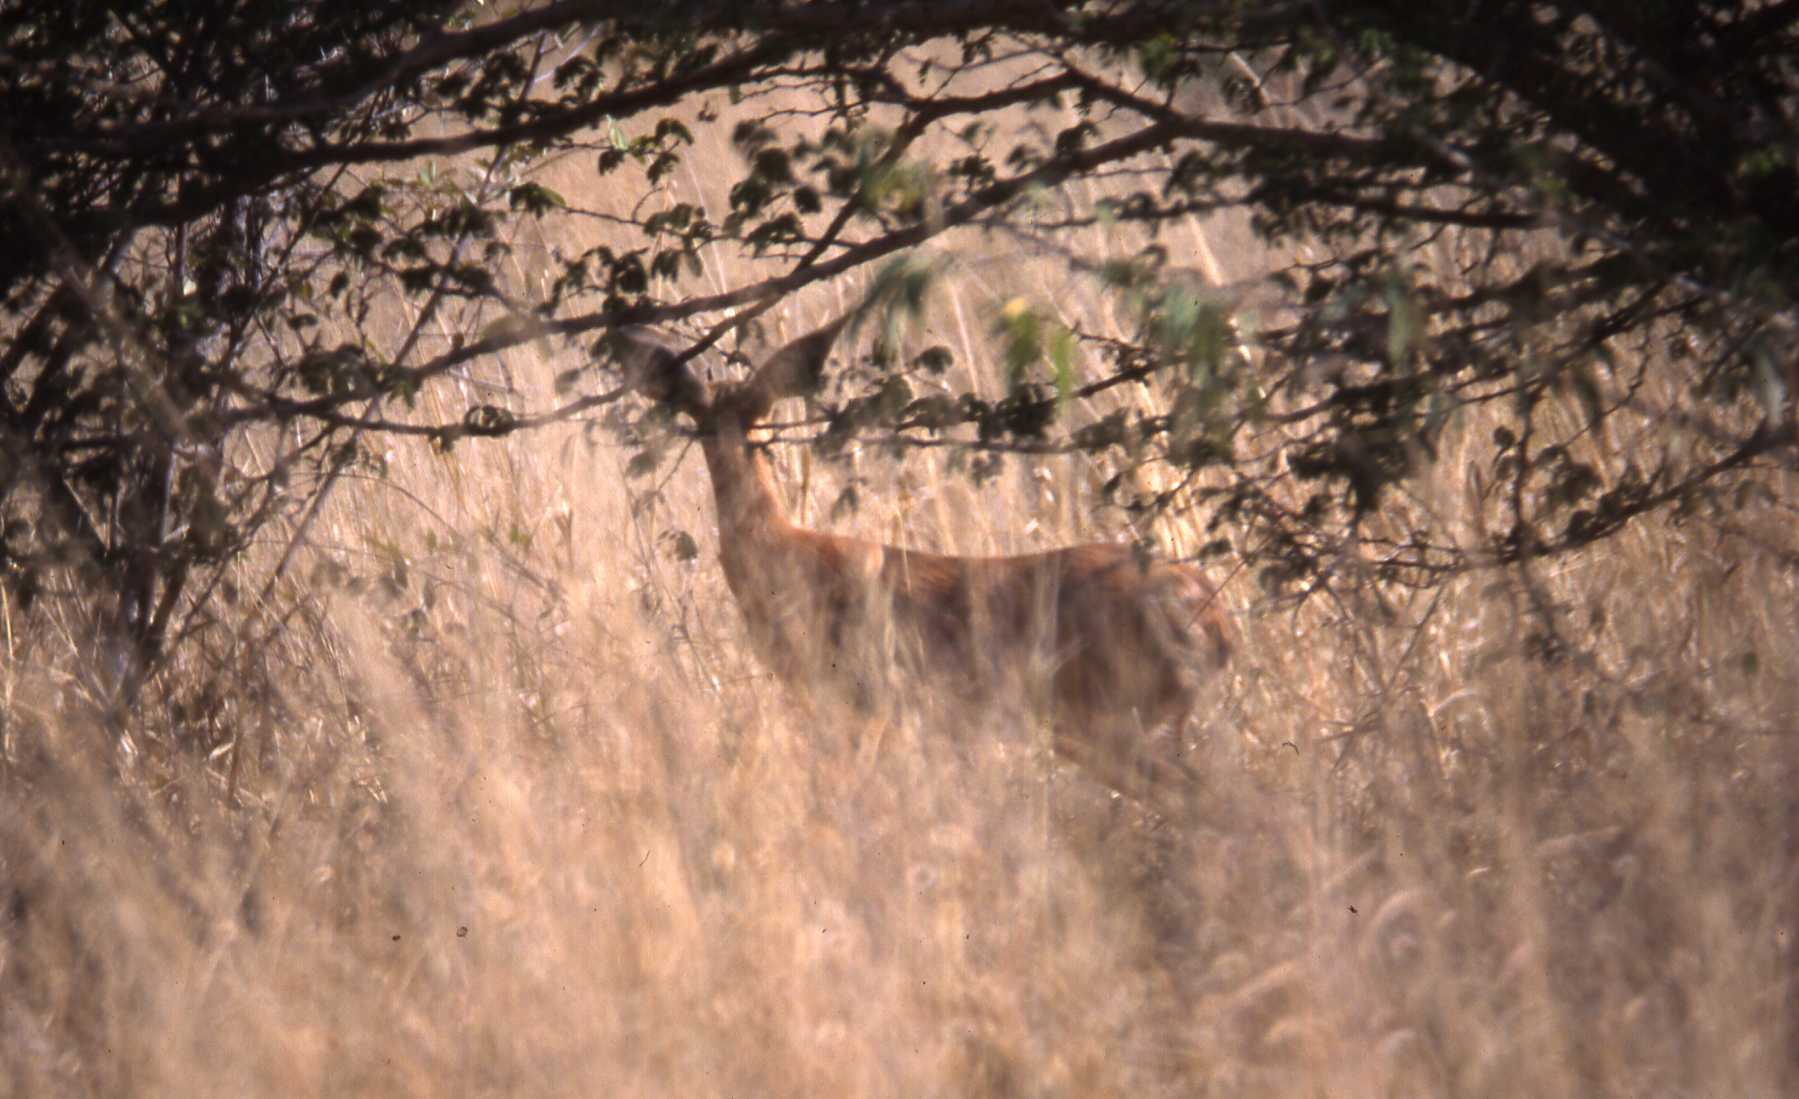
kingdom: Animalia
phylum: Chordata
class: Mammalia
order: Artiodactyla
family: Bovidae
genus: Raphicerus
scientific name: Raphicerus campestris
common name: Steenbok
